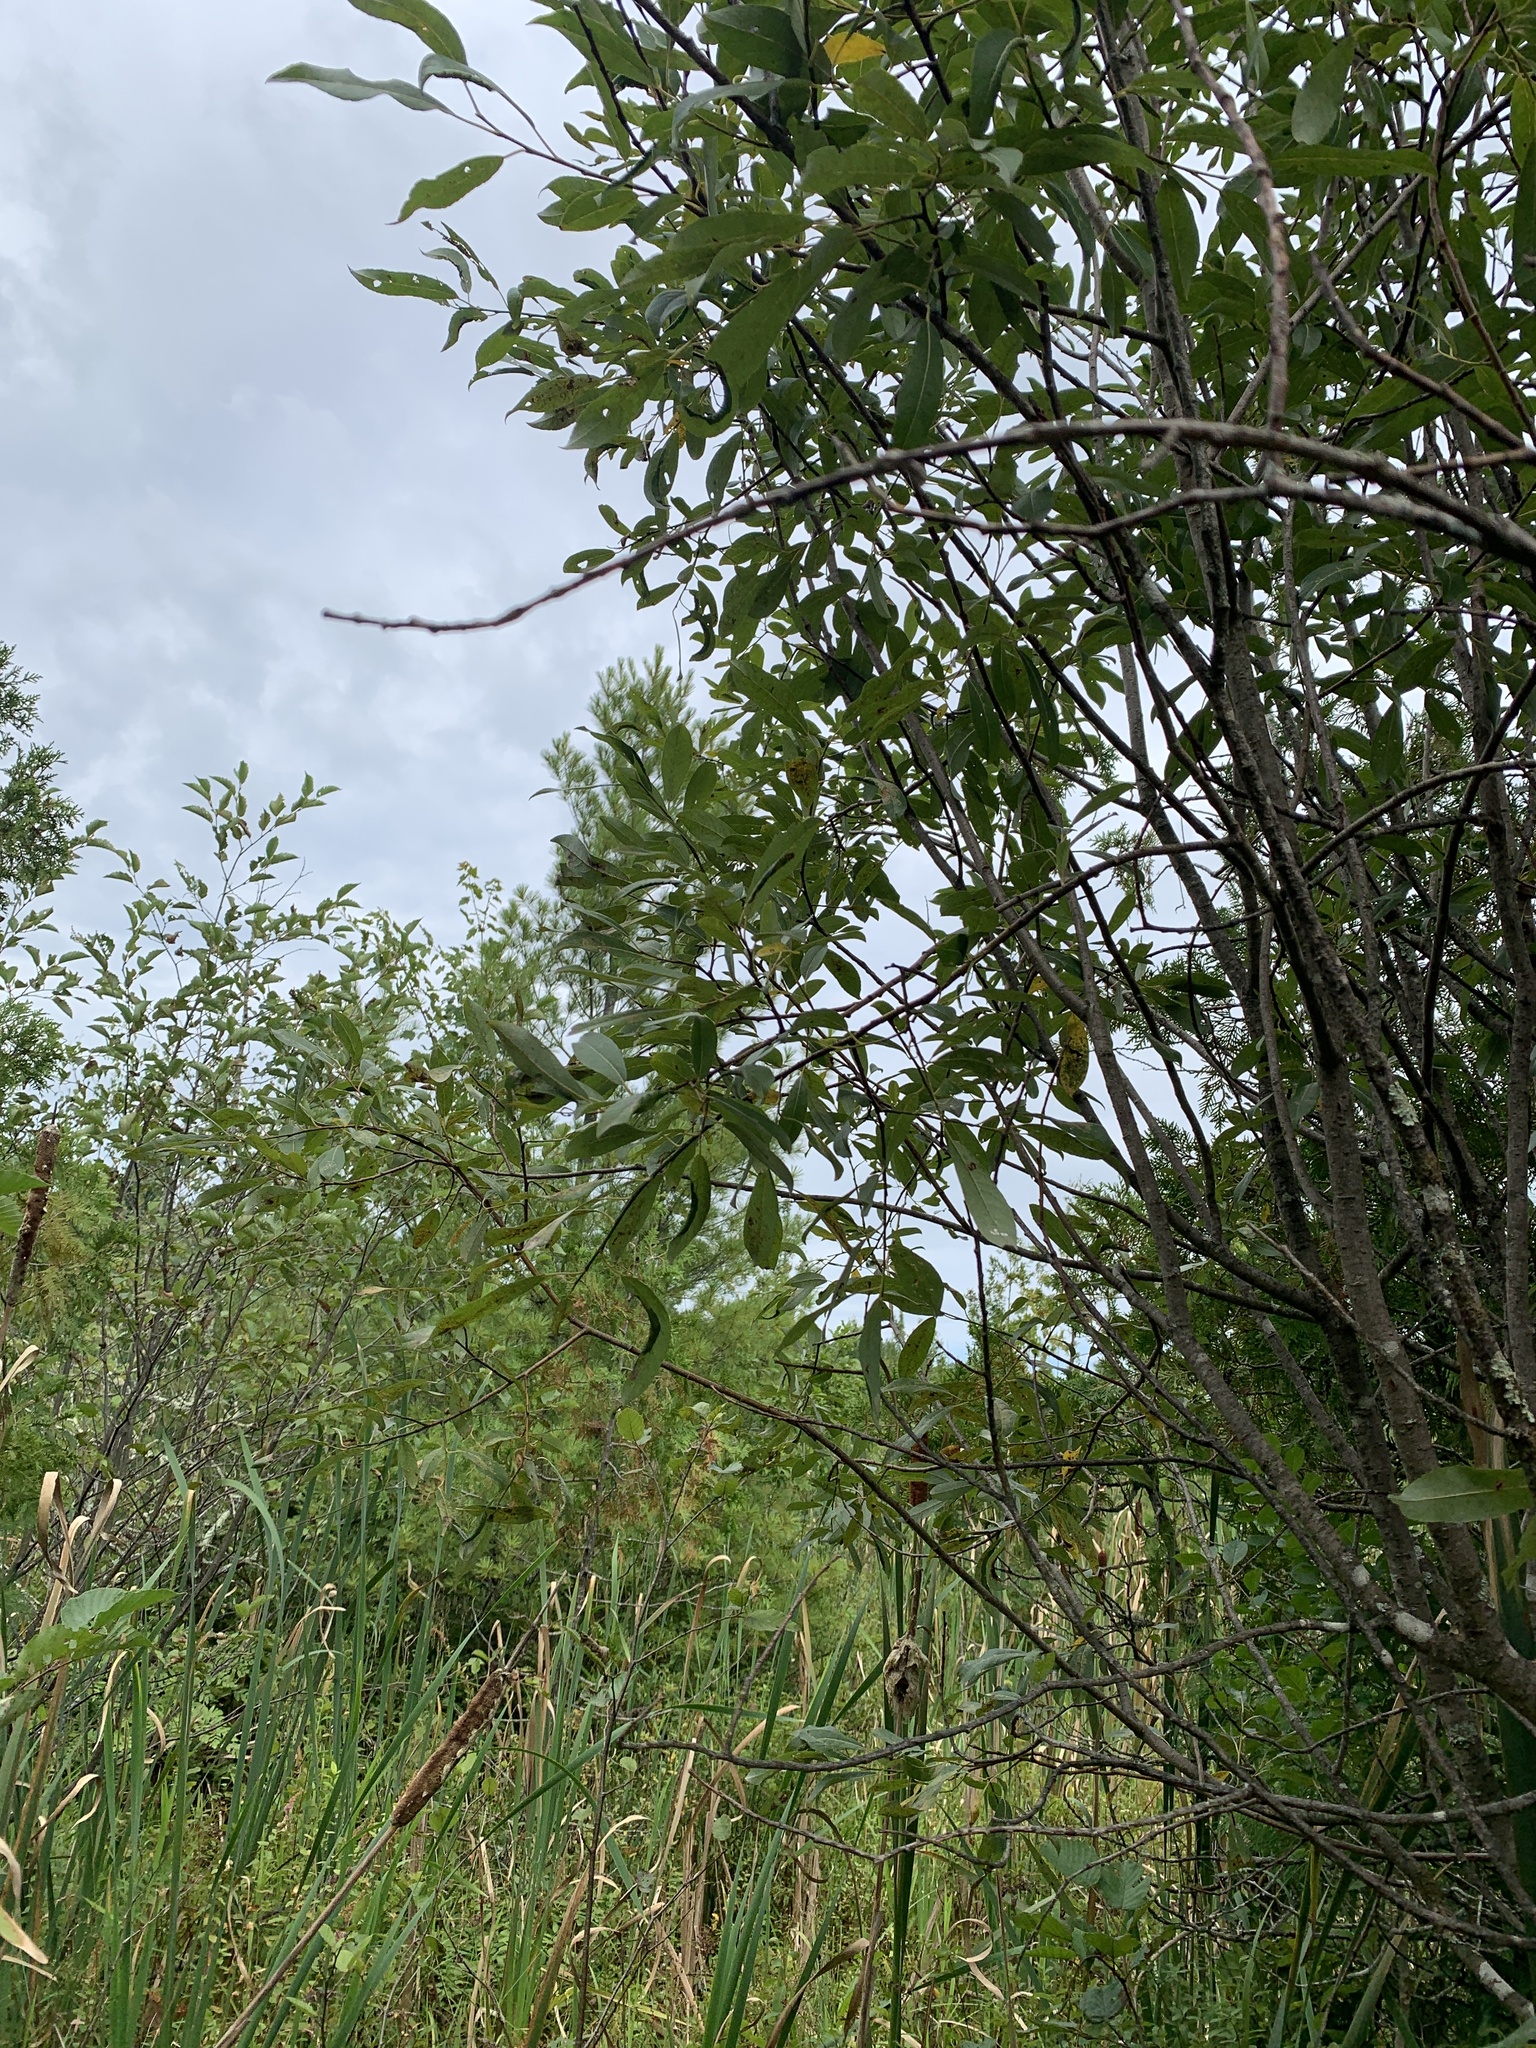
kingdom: Plantae
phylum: Tracheophyta
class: Magnoliopsida
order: Malpighiales
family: Salicaceae
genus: Salix
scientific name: Salix discolor
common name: Glaucous willow
